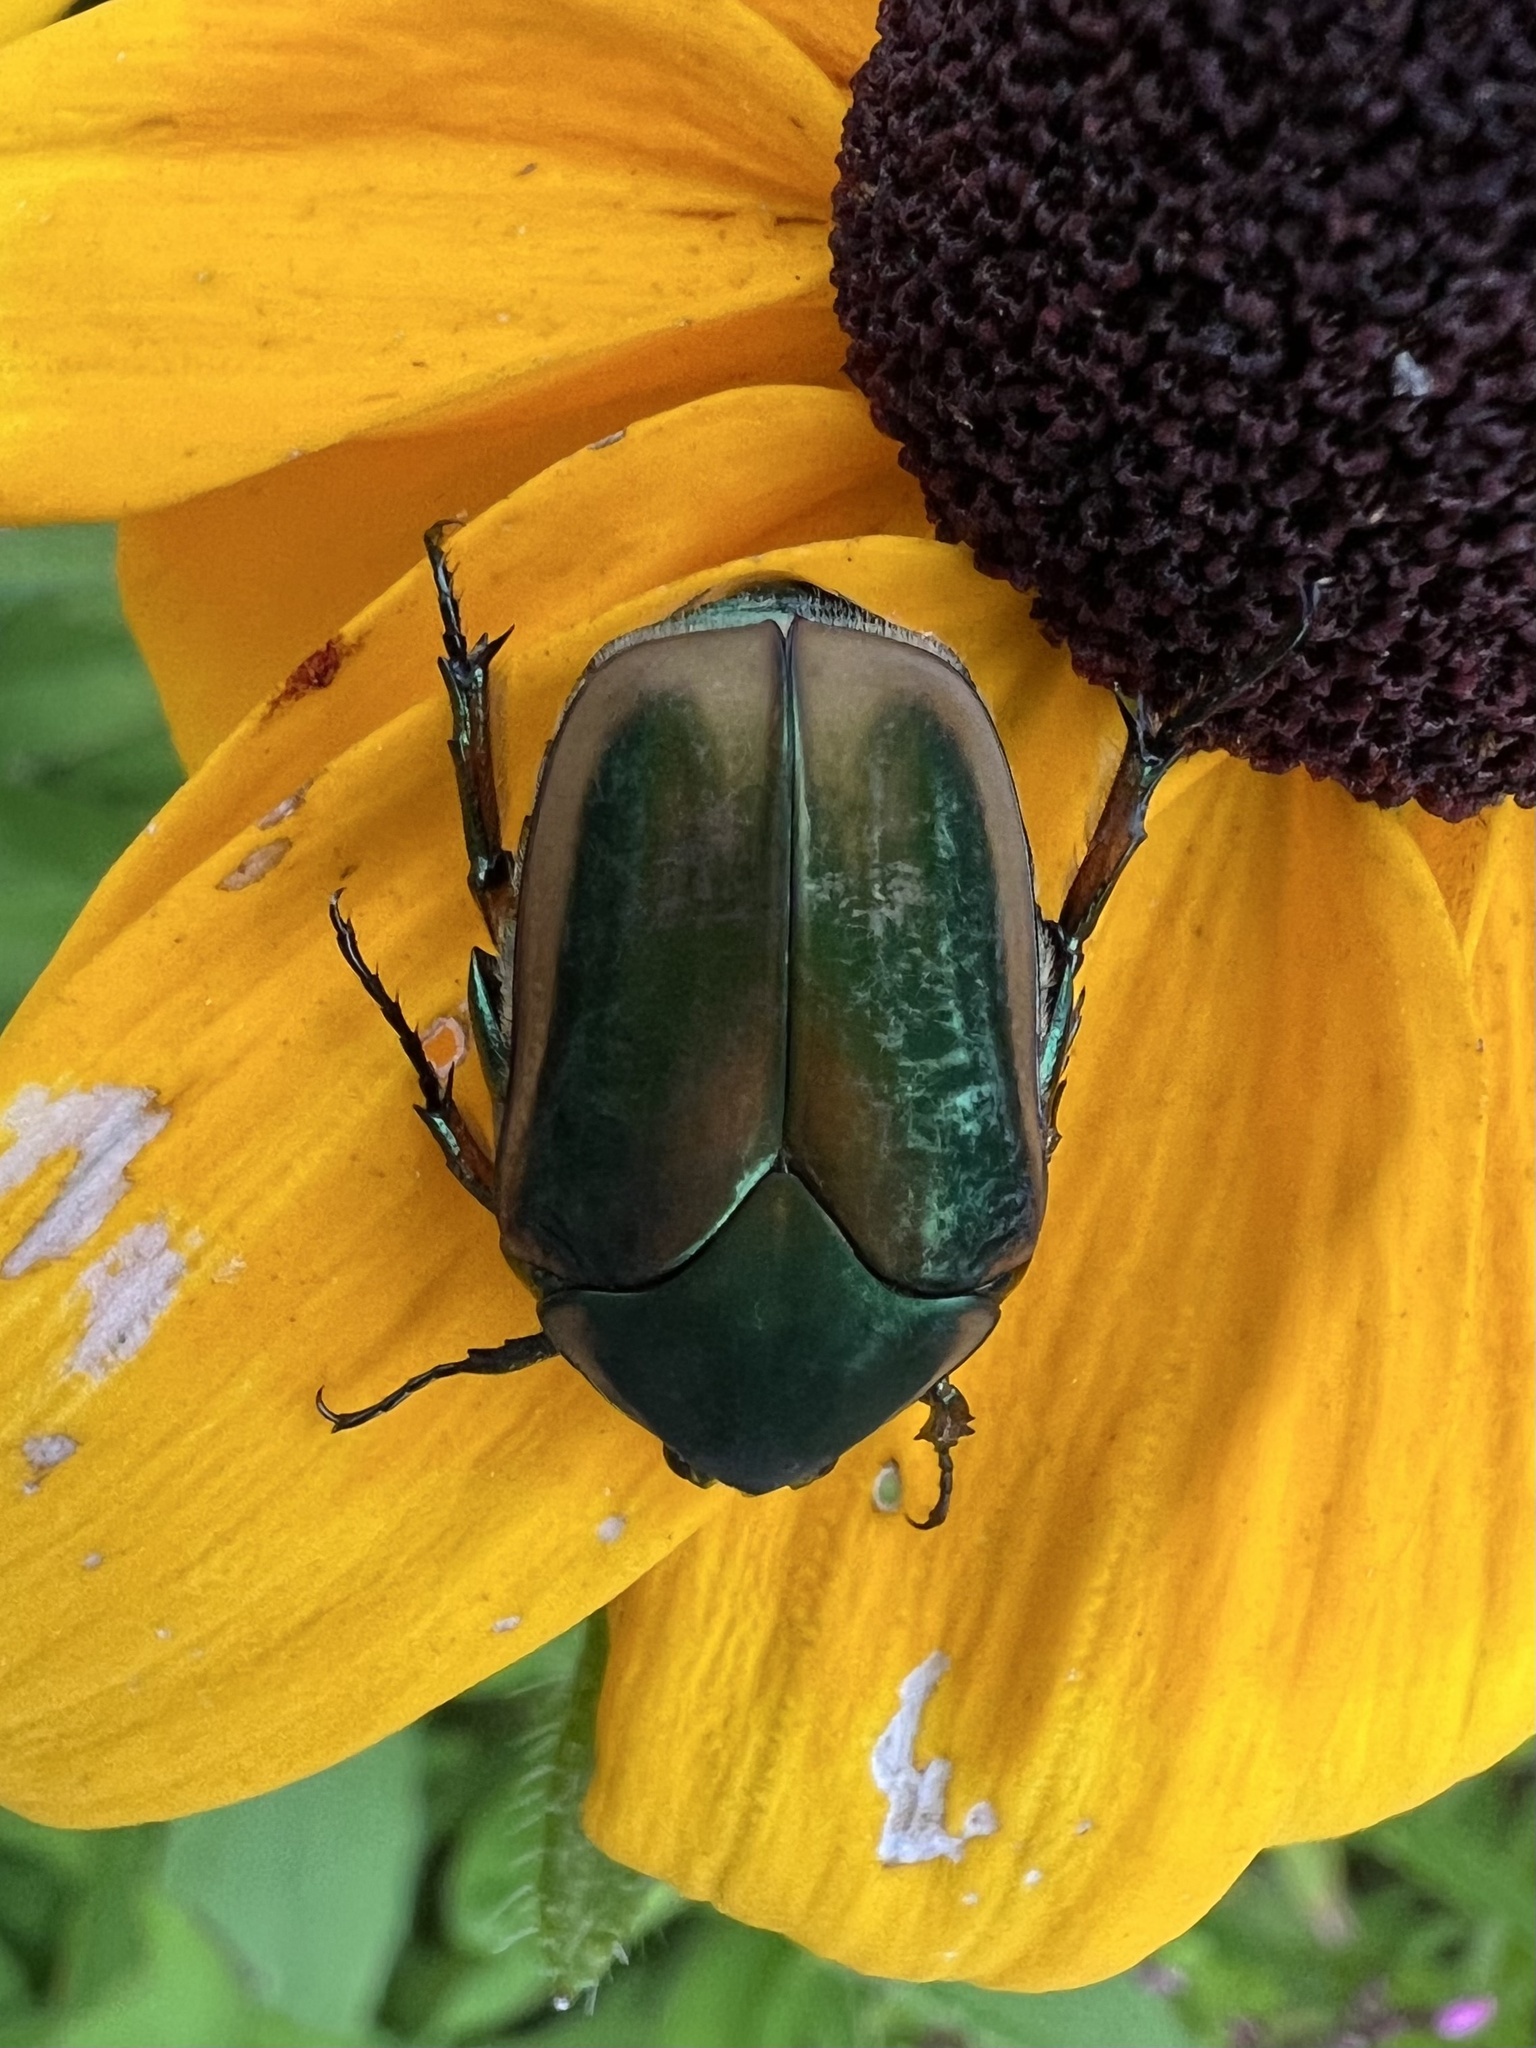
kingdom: Animalia
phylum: Arthropoda
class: Insecta
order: Coleoptera
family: Scarabaeidae
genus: Cotinis
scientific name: Cotinis nitida
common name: Common green june beetle
